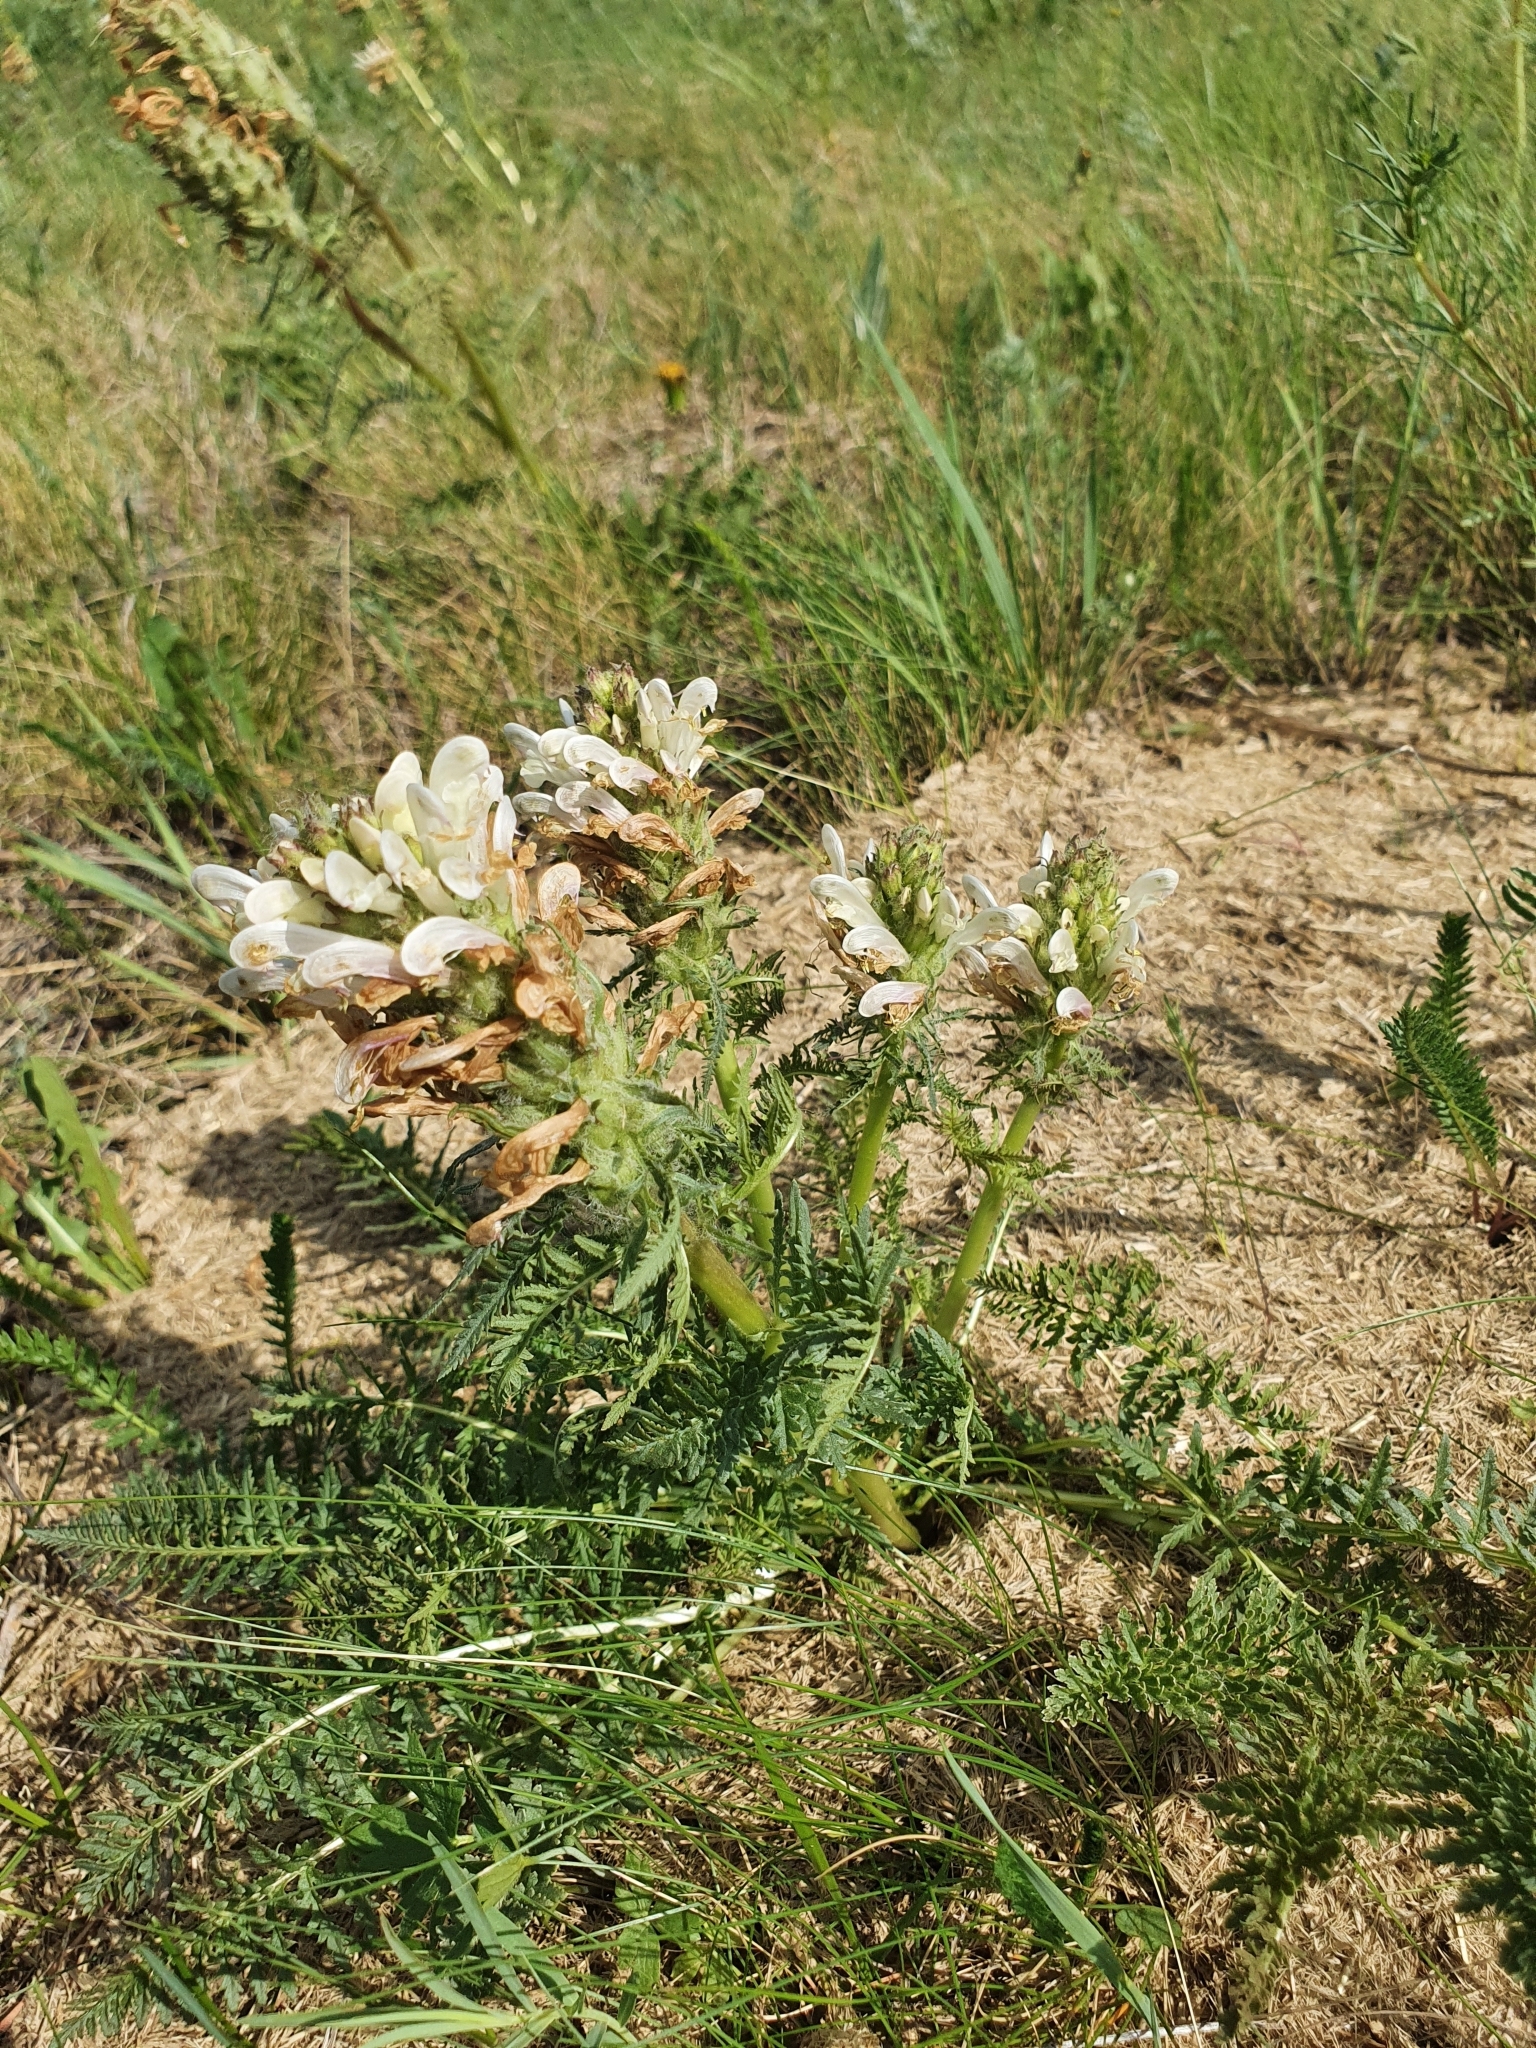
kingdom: Plantae
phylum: Tracheophyta
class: Magnoliopsida
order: Lamiales
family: Orobanchaceae
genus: Pedicularis
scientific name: Pedicularis dasystachys
